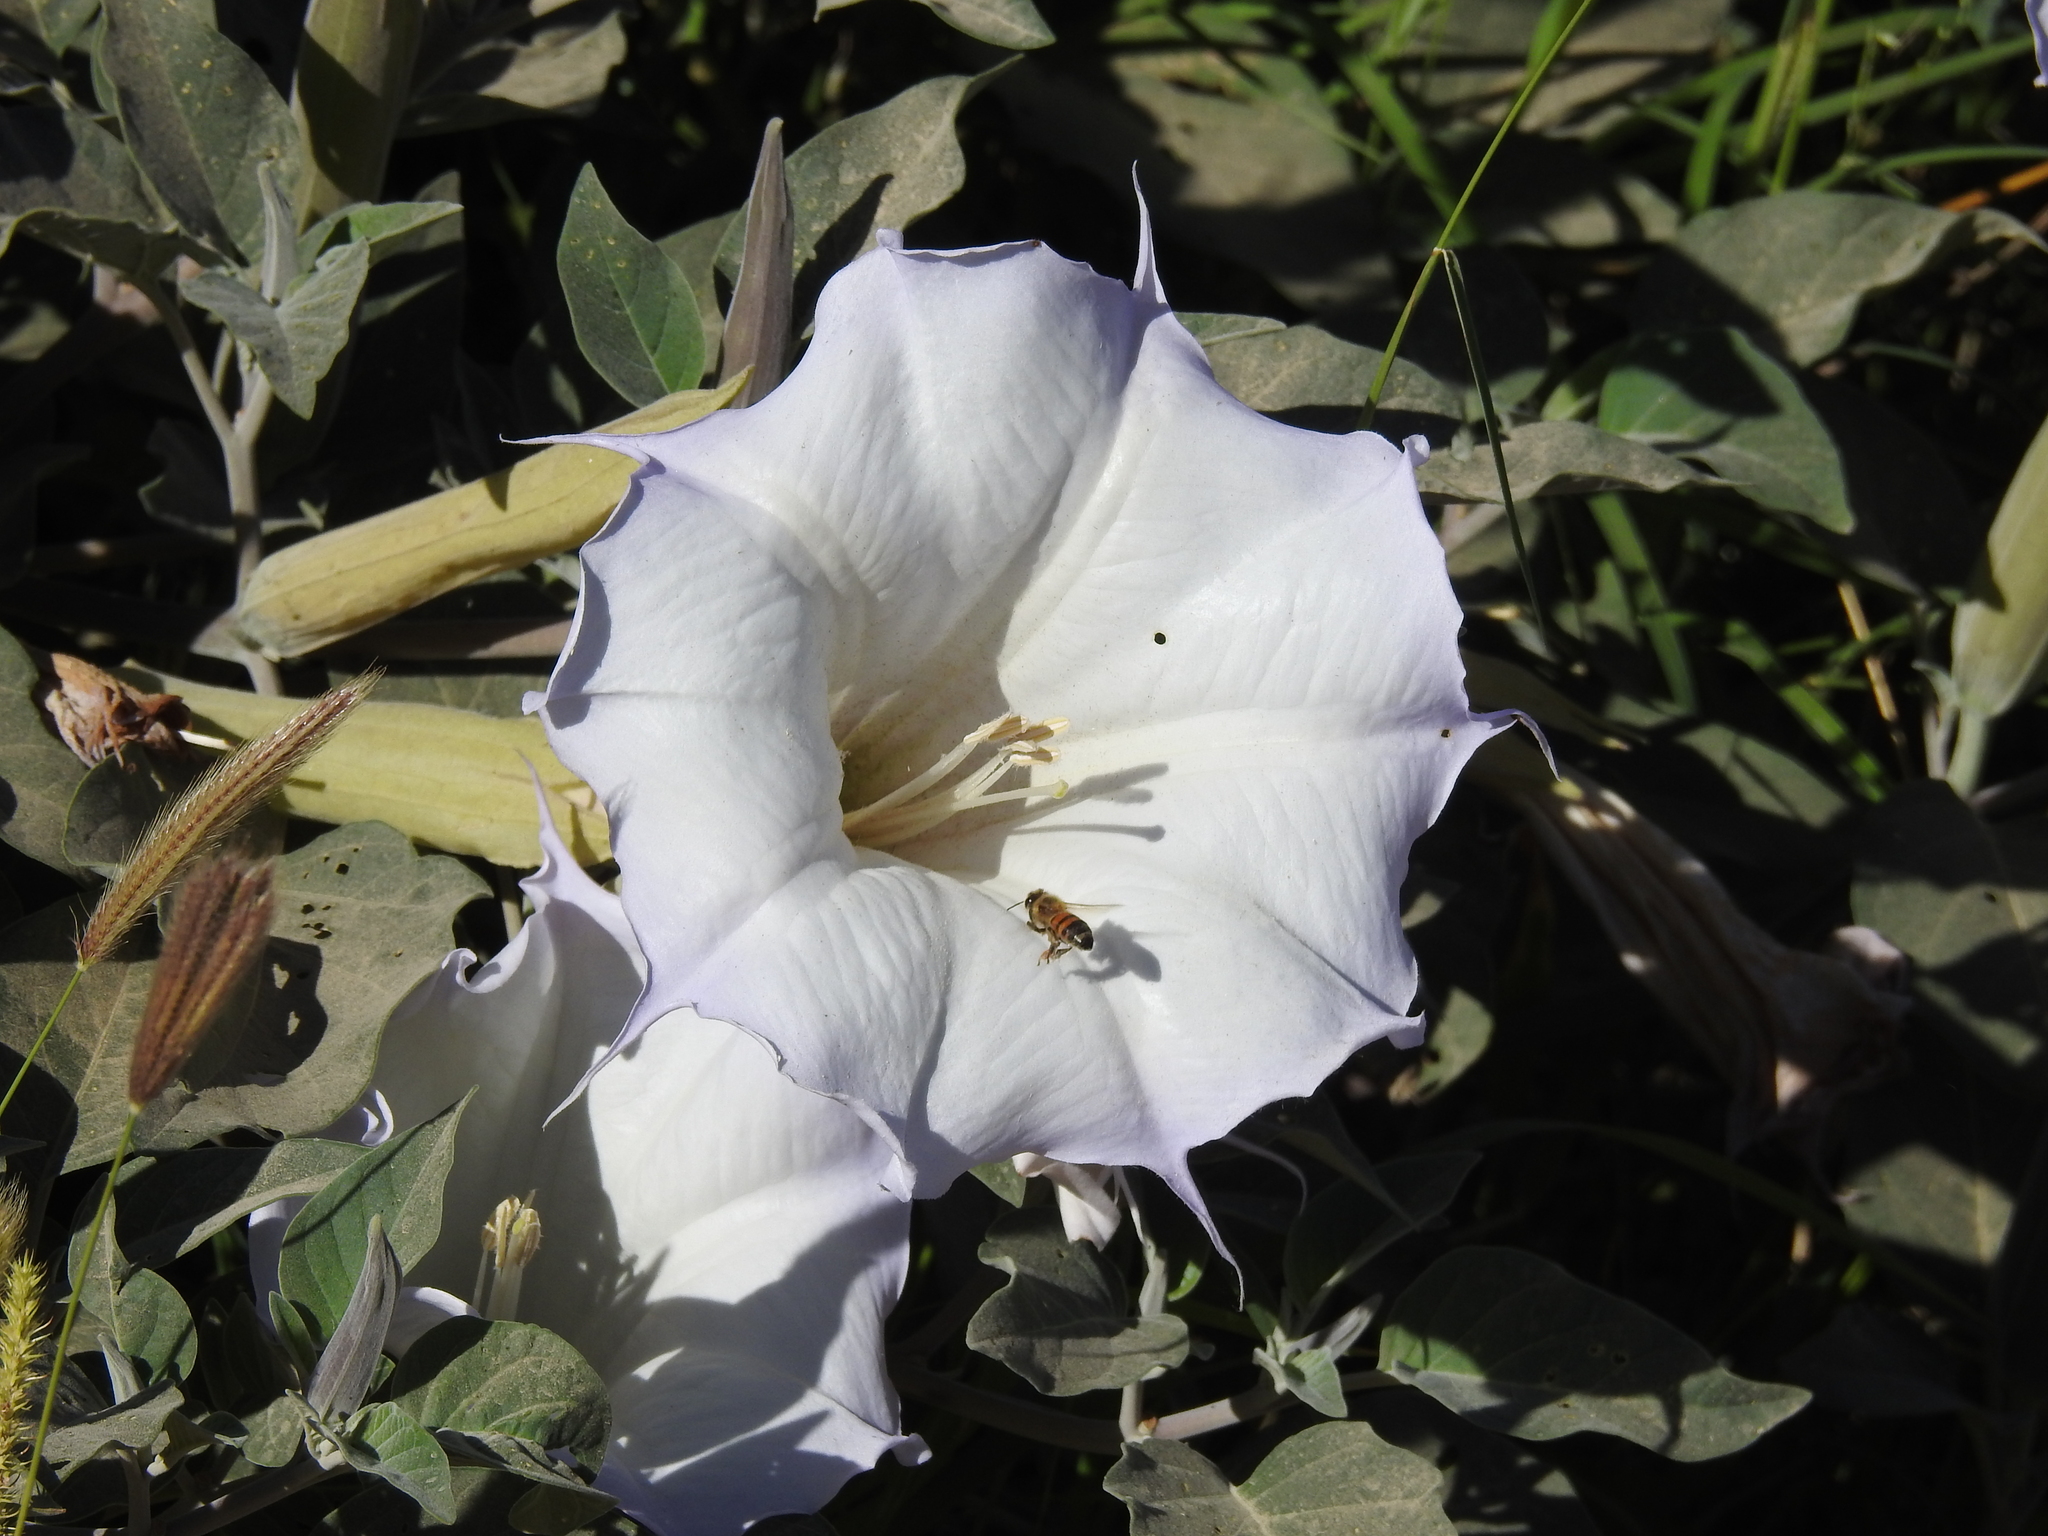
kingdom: Animalia
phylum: Arthropoda
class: Insecta
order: Hymenoptera
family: Apidae
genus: Apis
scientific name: Apis mellifera
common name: Honey bee
